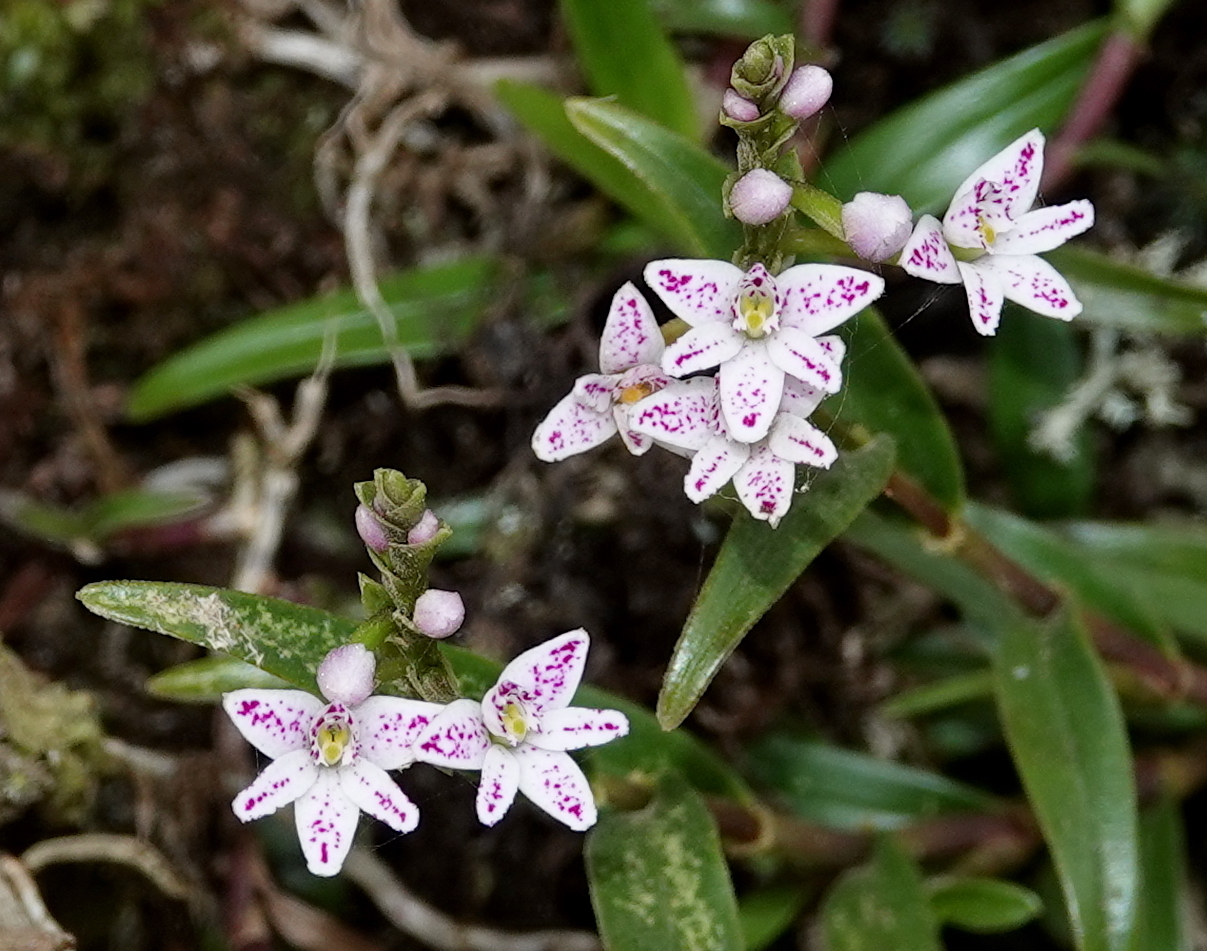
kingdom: Plantae
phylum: Tracheophyta
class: Liliopsida
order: Asparagales
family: Orchidaceae
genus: Epidendrum
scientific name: Epidendrum fimbriatum
